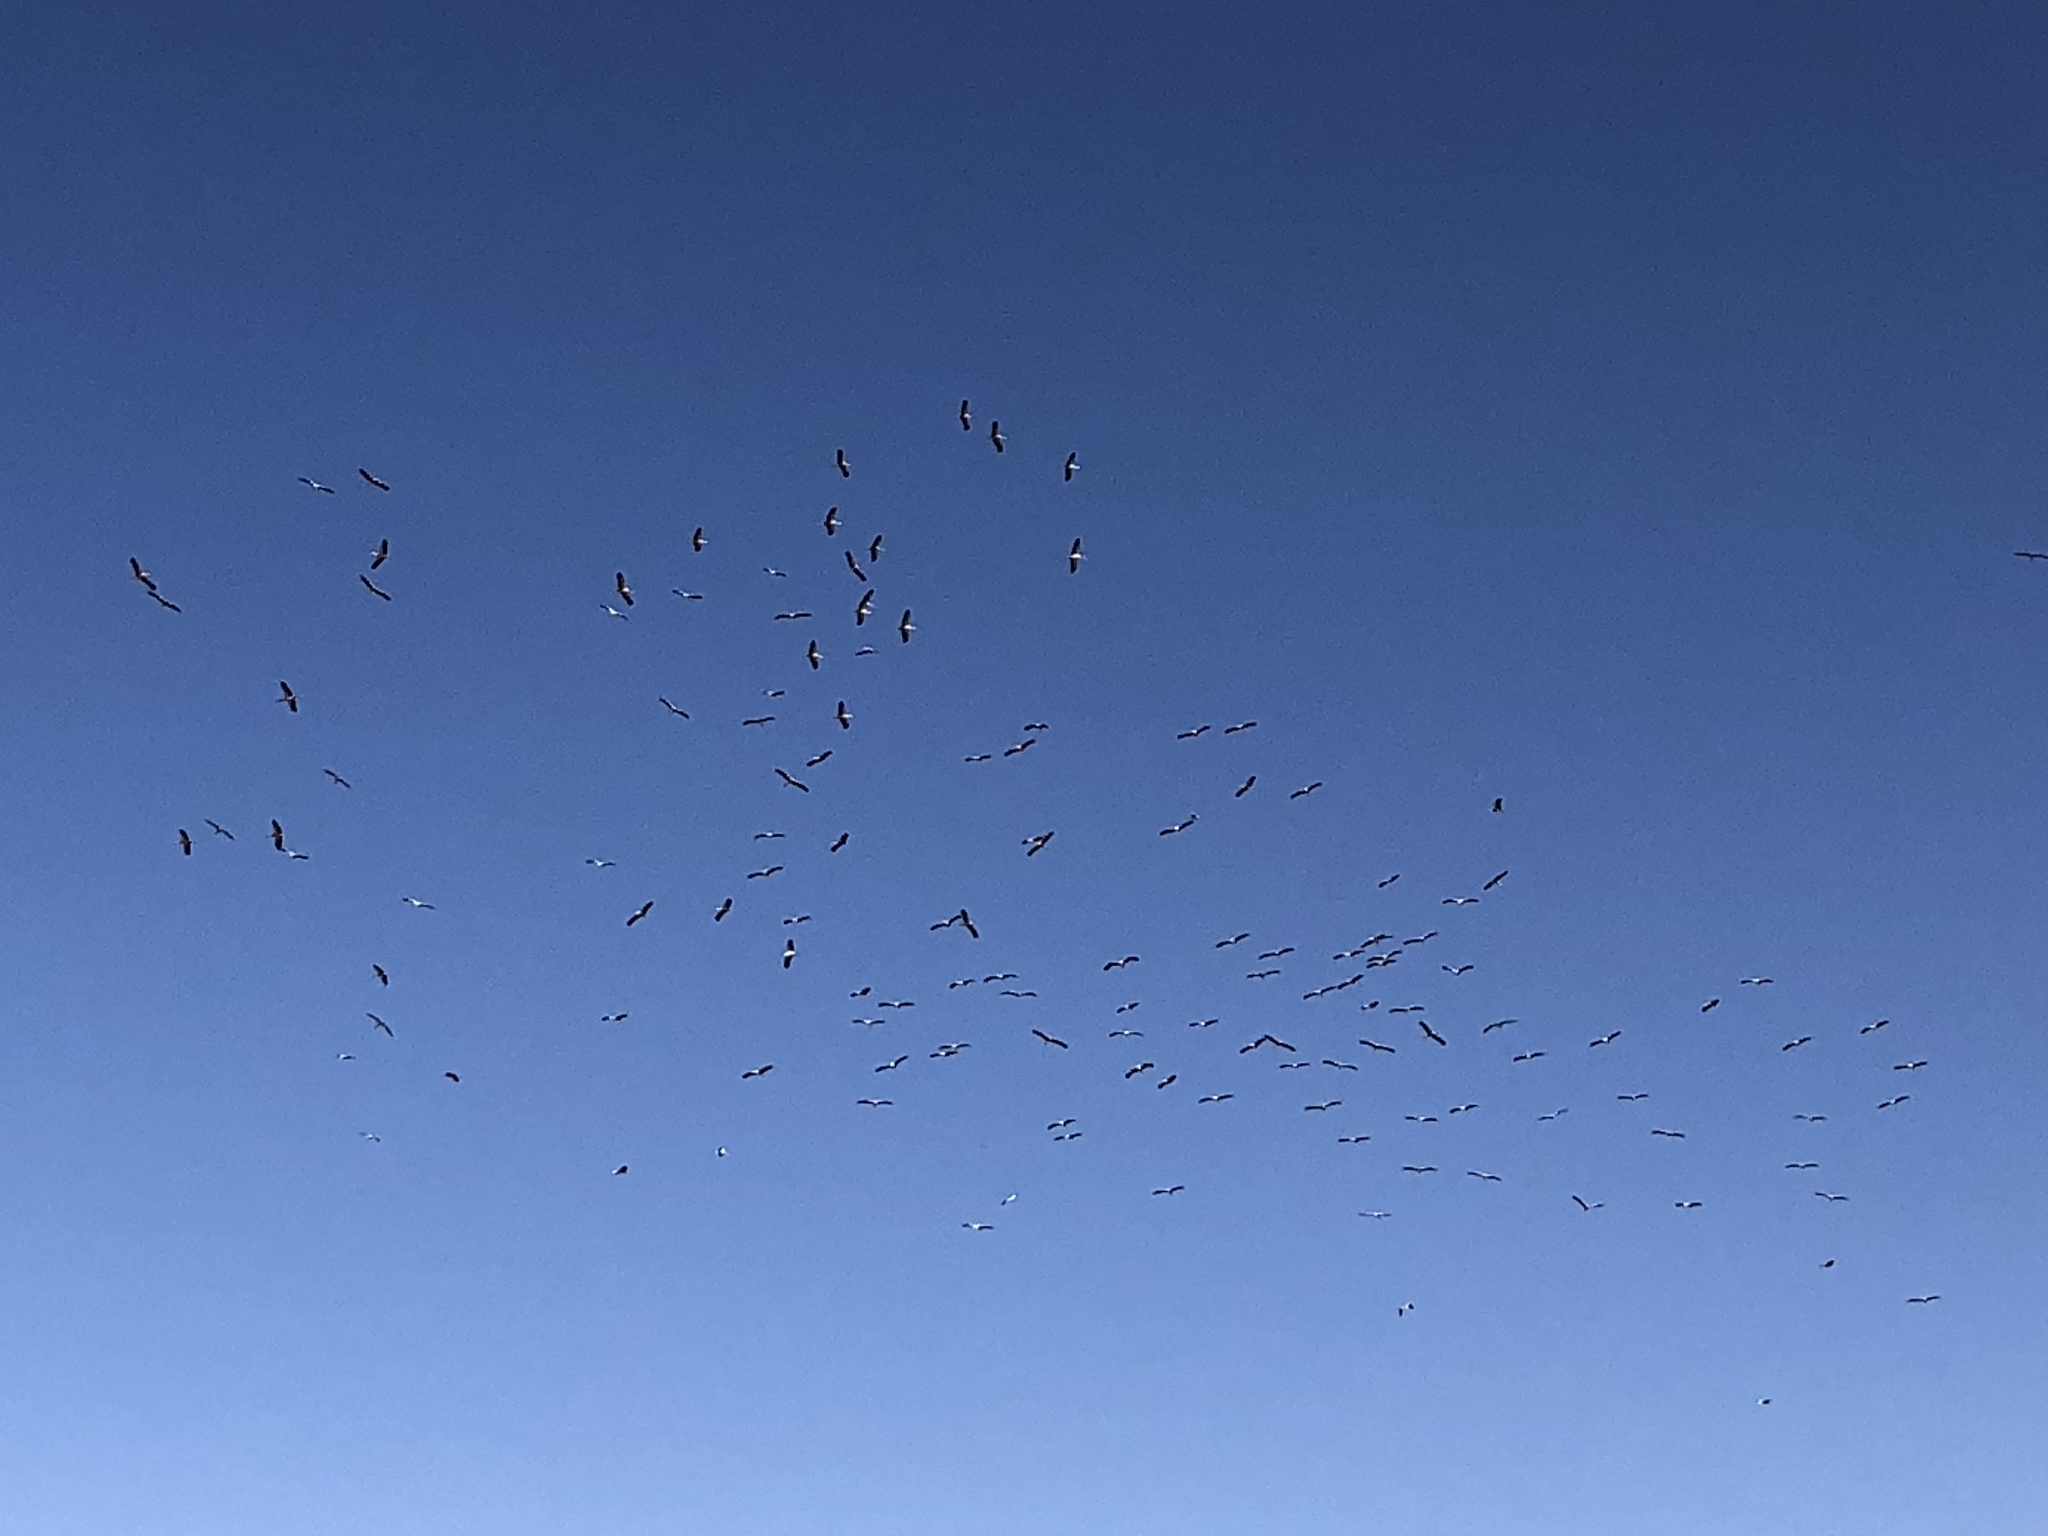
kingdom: Animalia
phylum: Chordata
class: Aves
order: Ciconiiformes
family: Ciconiidae
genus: Ciconia
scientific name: Ciconia ciconia
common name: White stork
